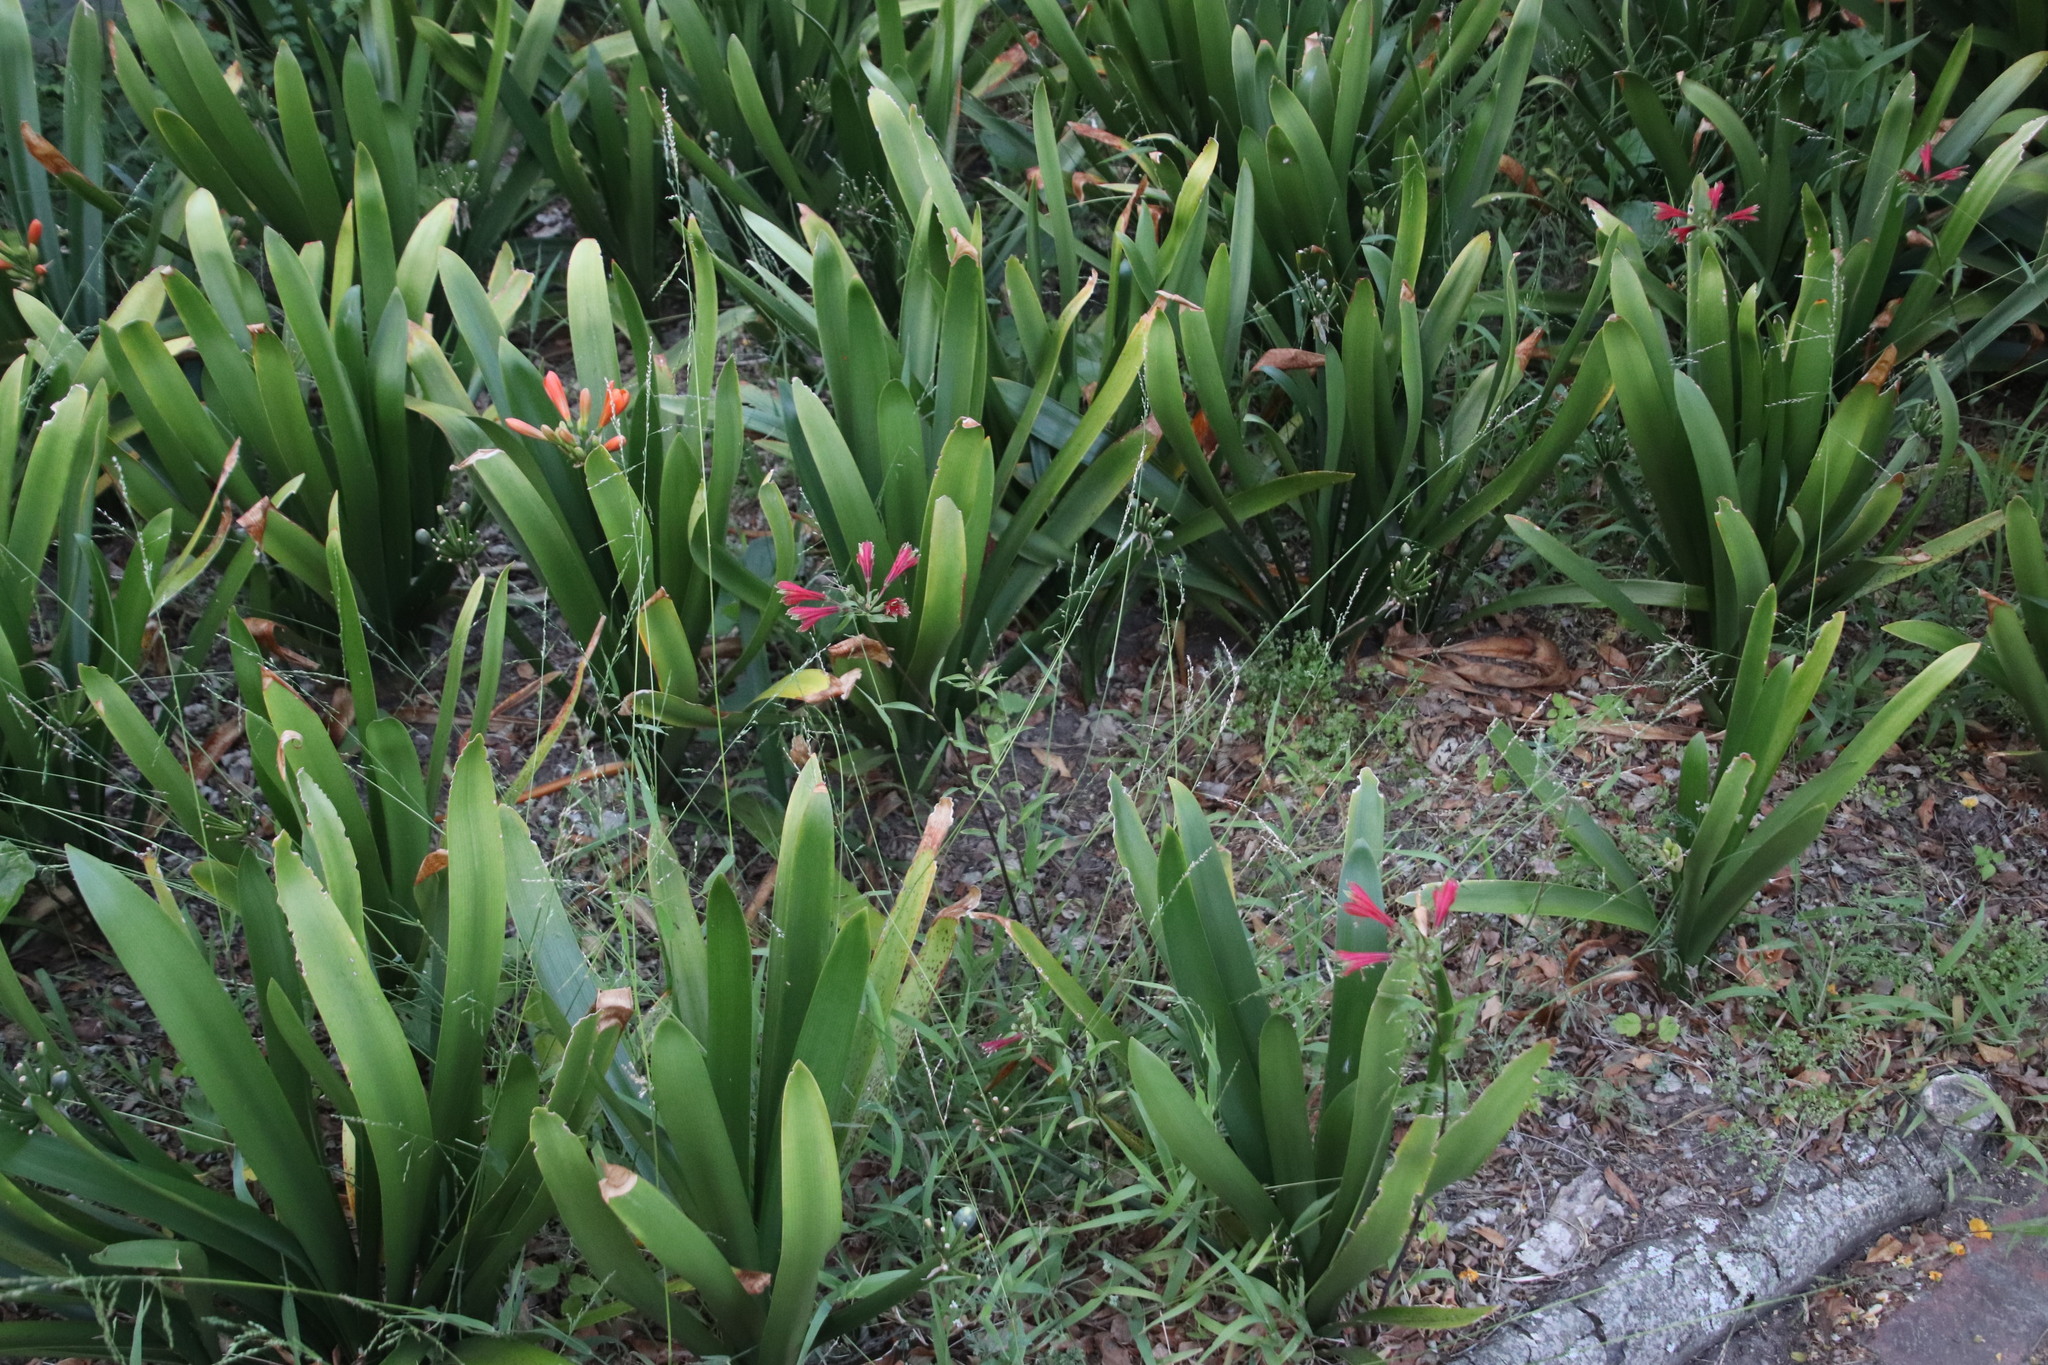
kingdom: Plantae
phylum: Tracheophyta
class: Liliopsida
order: Liliales
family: Alstroemeriaceae
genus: Alstroemeria
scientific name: Alstroemeria psittacina
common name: Peruvian-lily
